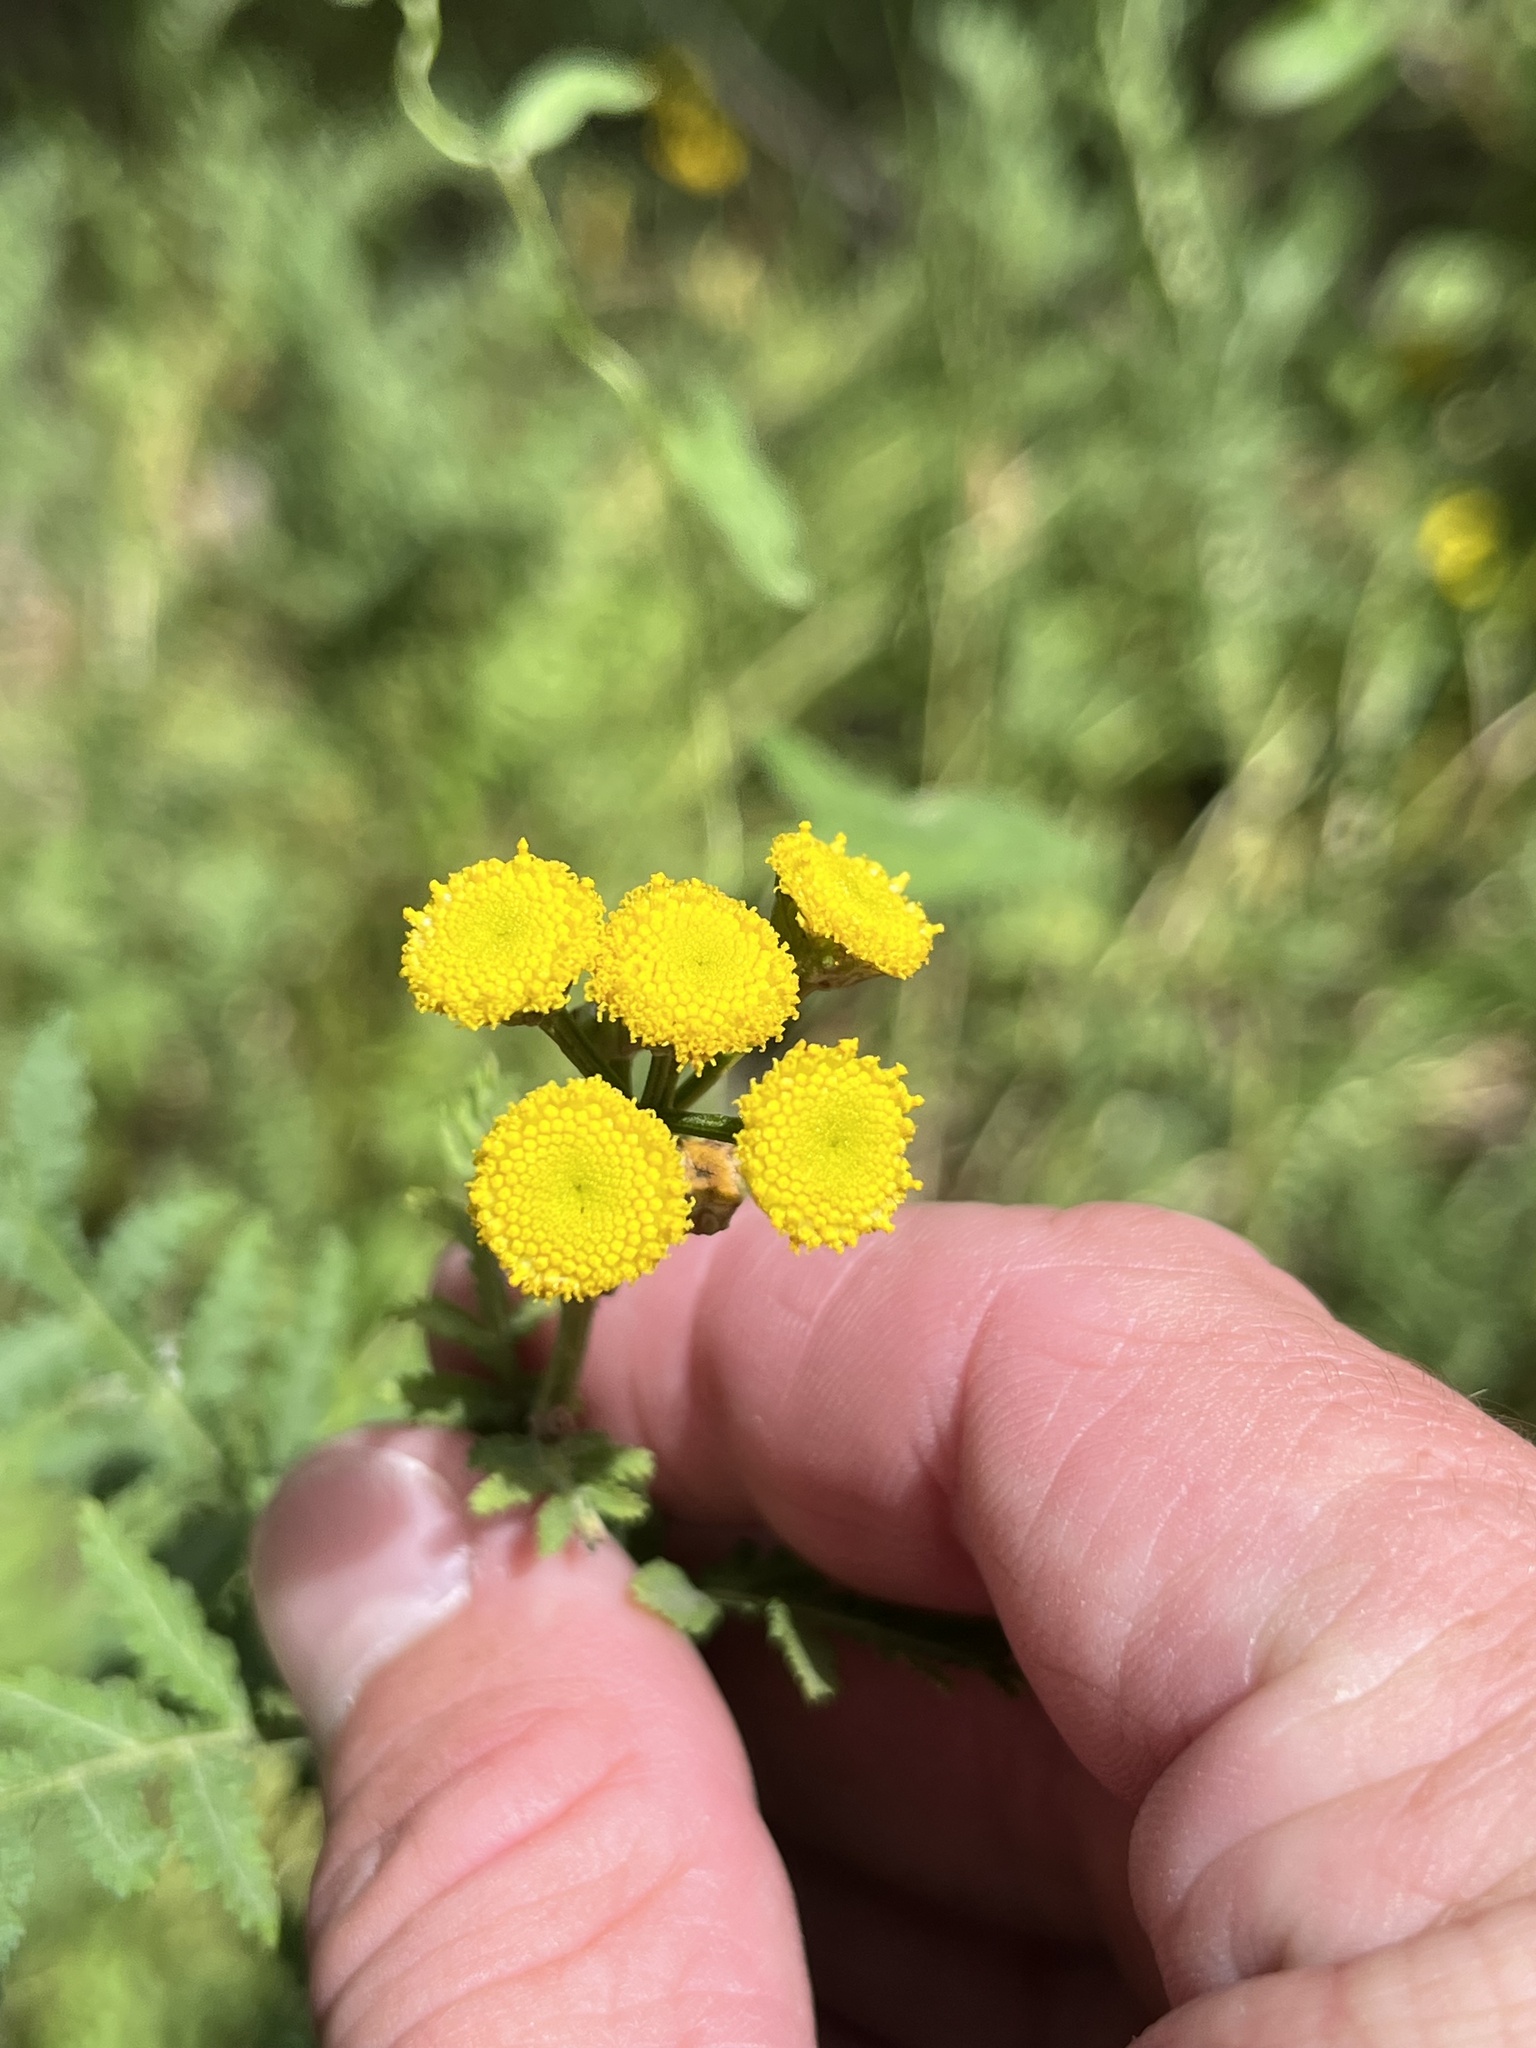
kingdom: Plantae
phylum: Tracheophyta
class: Magnoliopsida
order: Asterales
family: Asteraceae
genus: Tanacetum
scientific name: Tanacetum vulgare
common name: Common tansy
